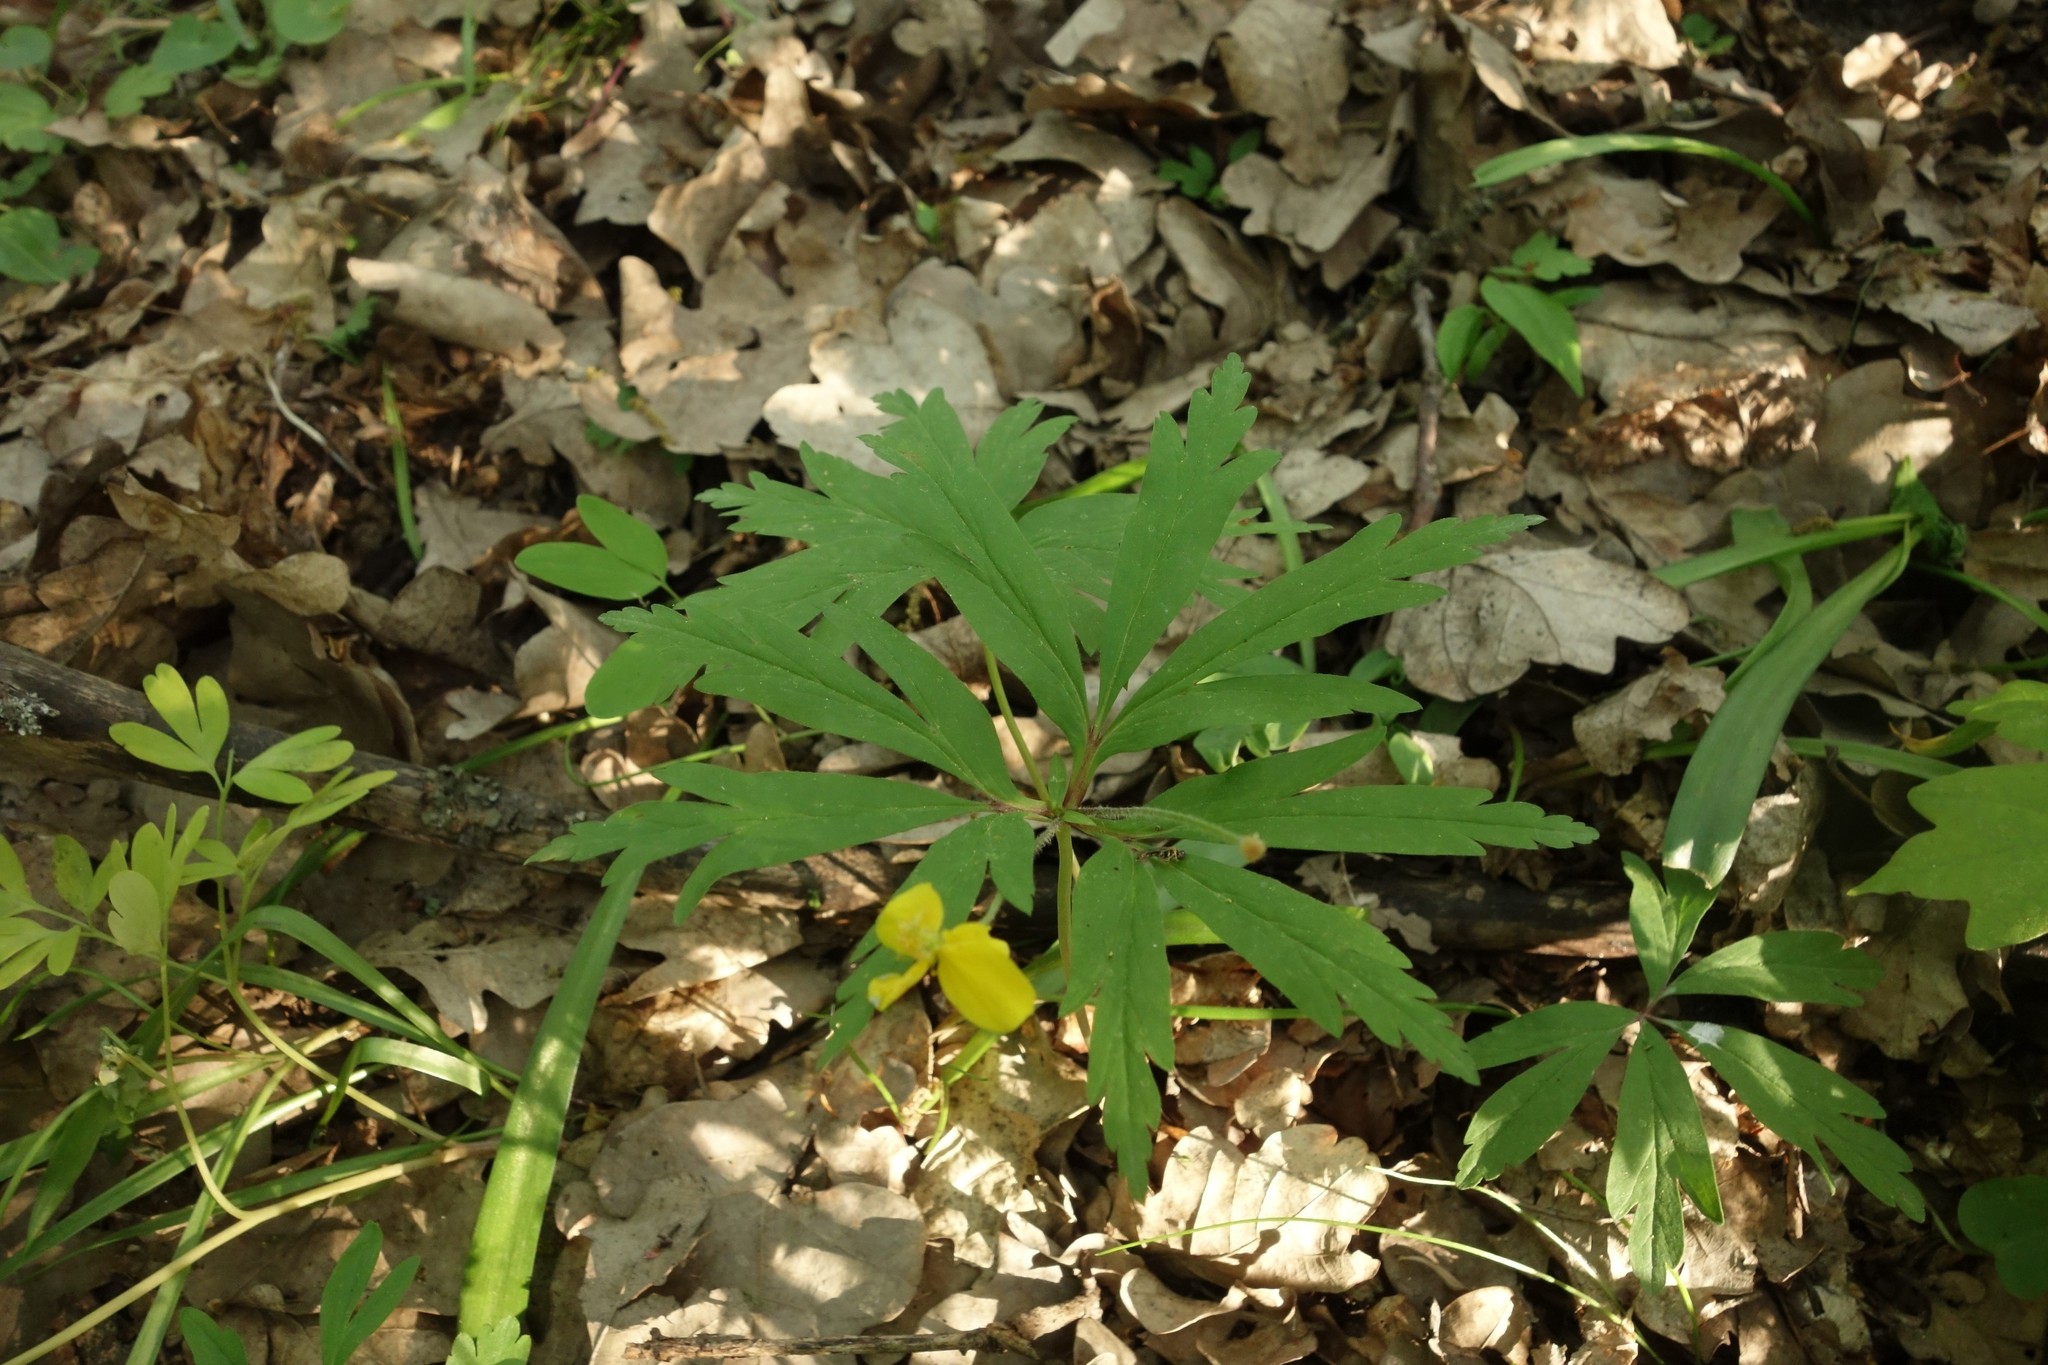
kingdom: Plantae
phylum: Tracheophyta
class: Magnoliopsida
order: Ranunculales
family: Ranunculaceae
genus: Anemone
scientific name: Anemone ranunculoides
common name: Yellow anemone
